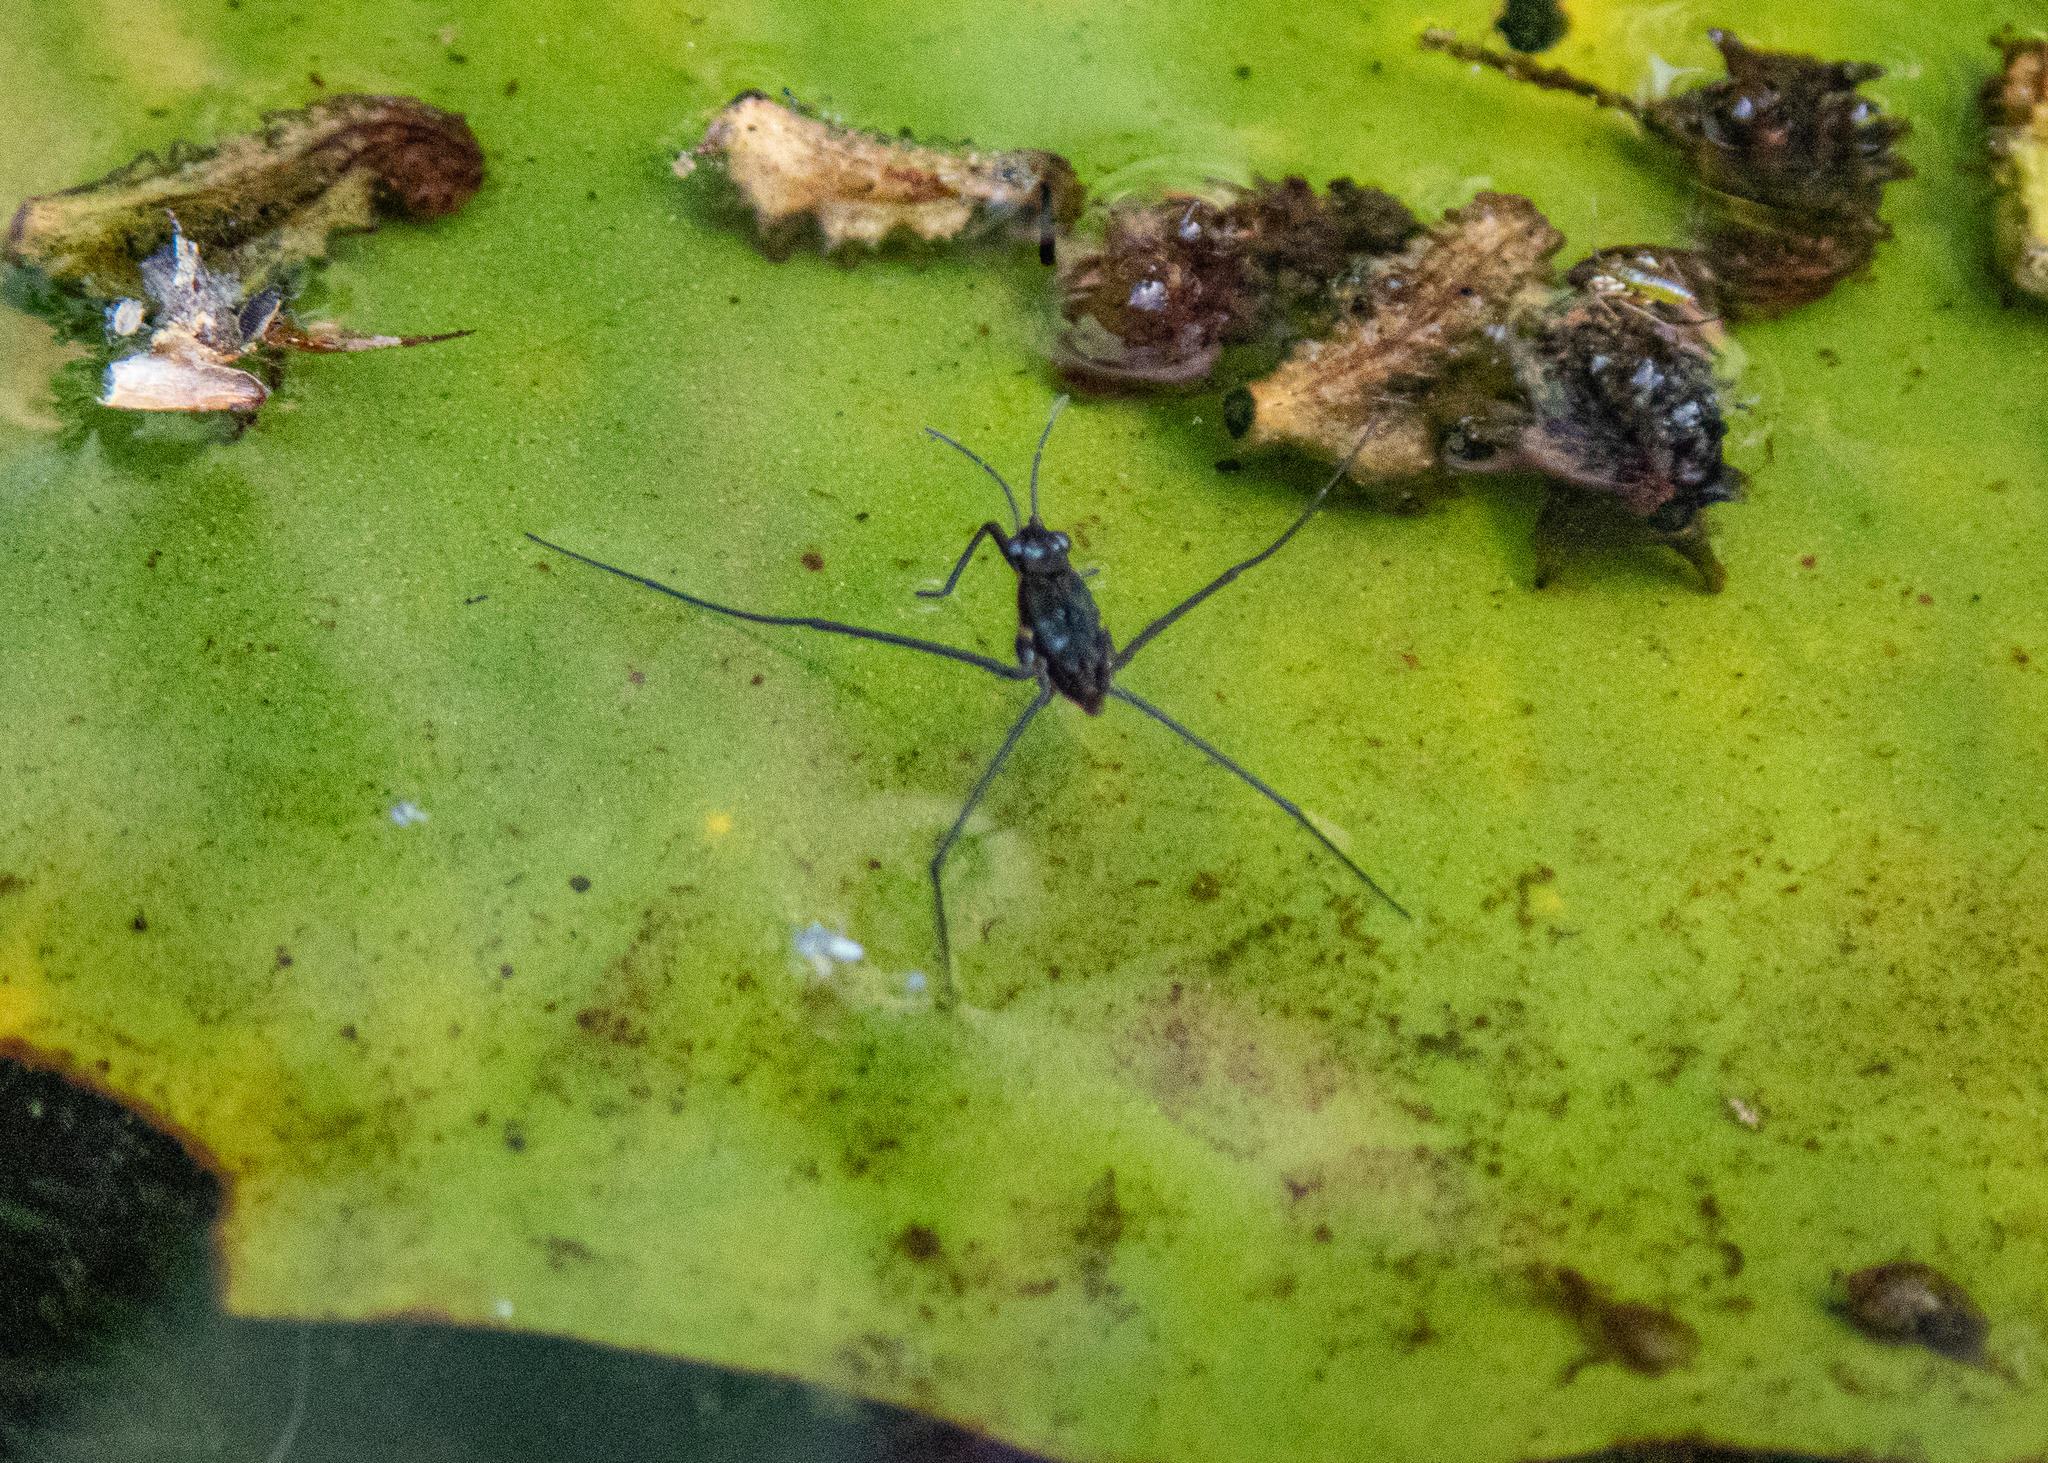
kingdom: Animalia
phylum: Arthropoda
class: Insecta
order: Hemiptera
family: Gerridae
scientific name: Gerridae
